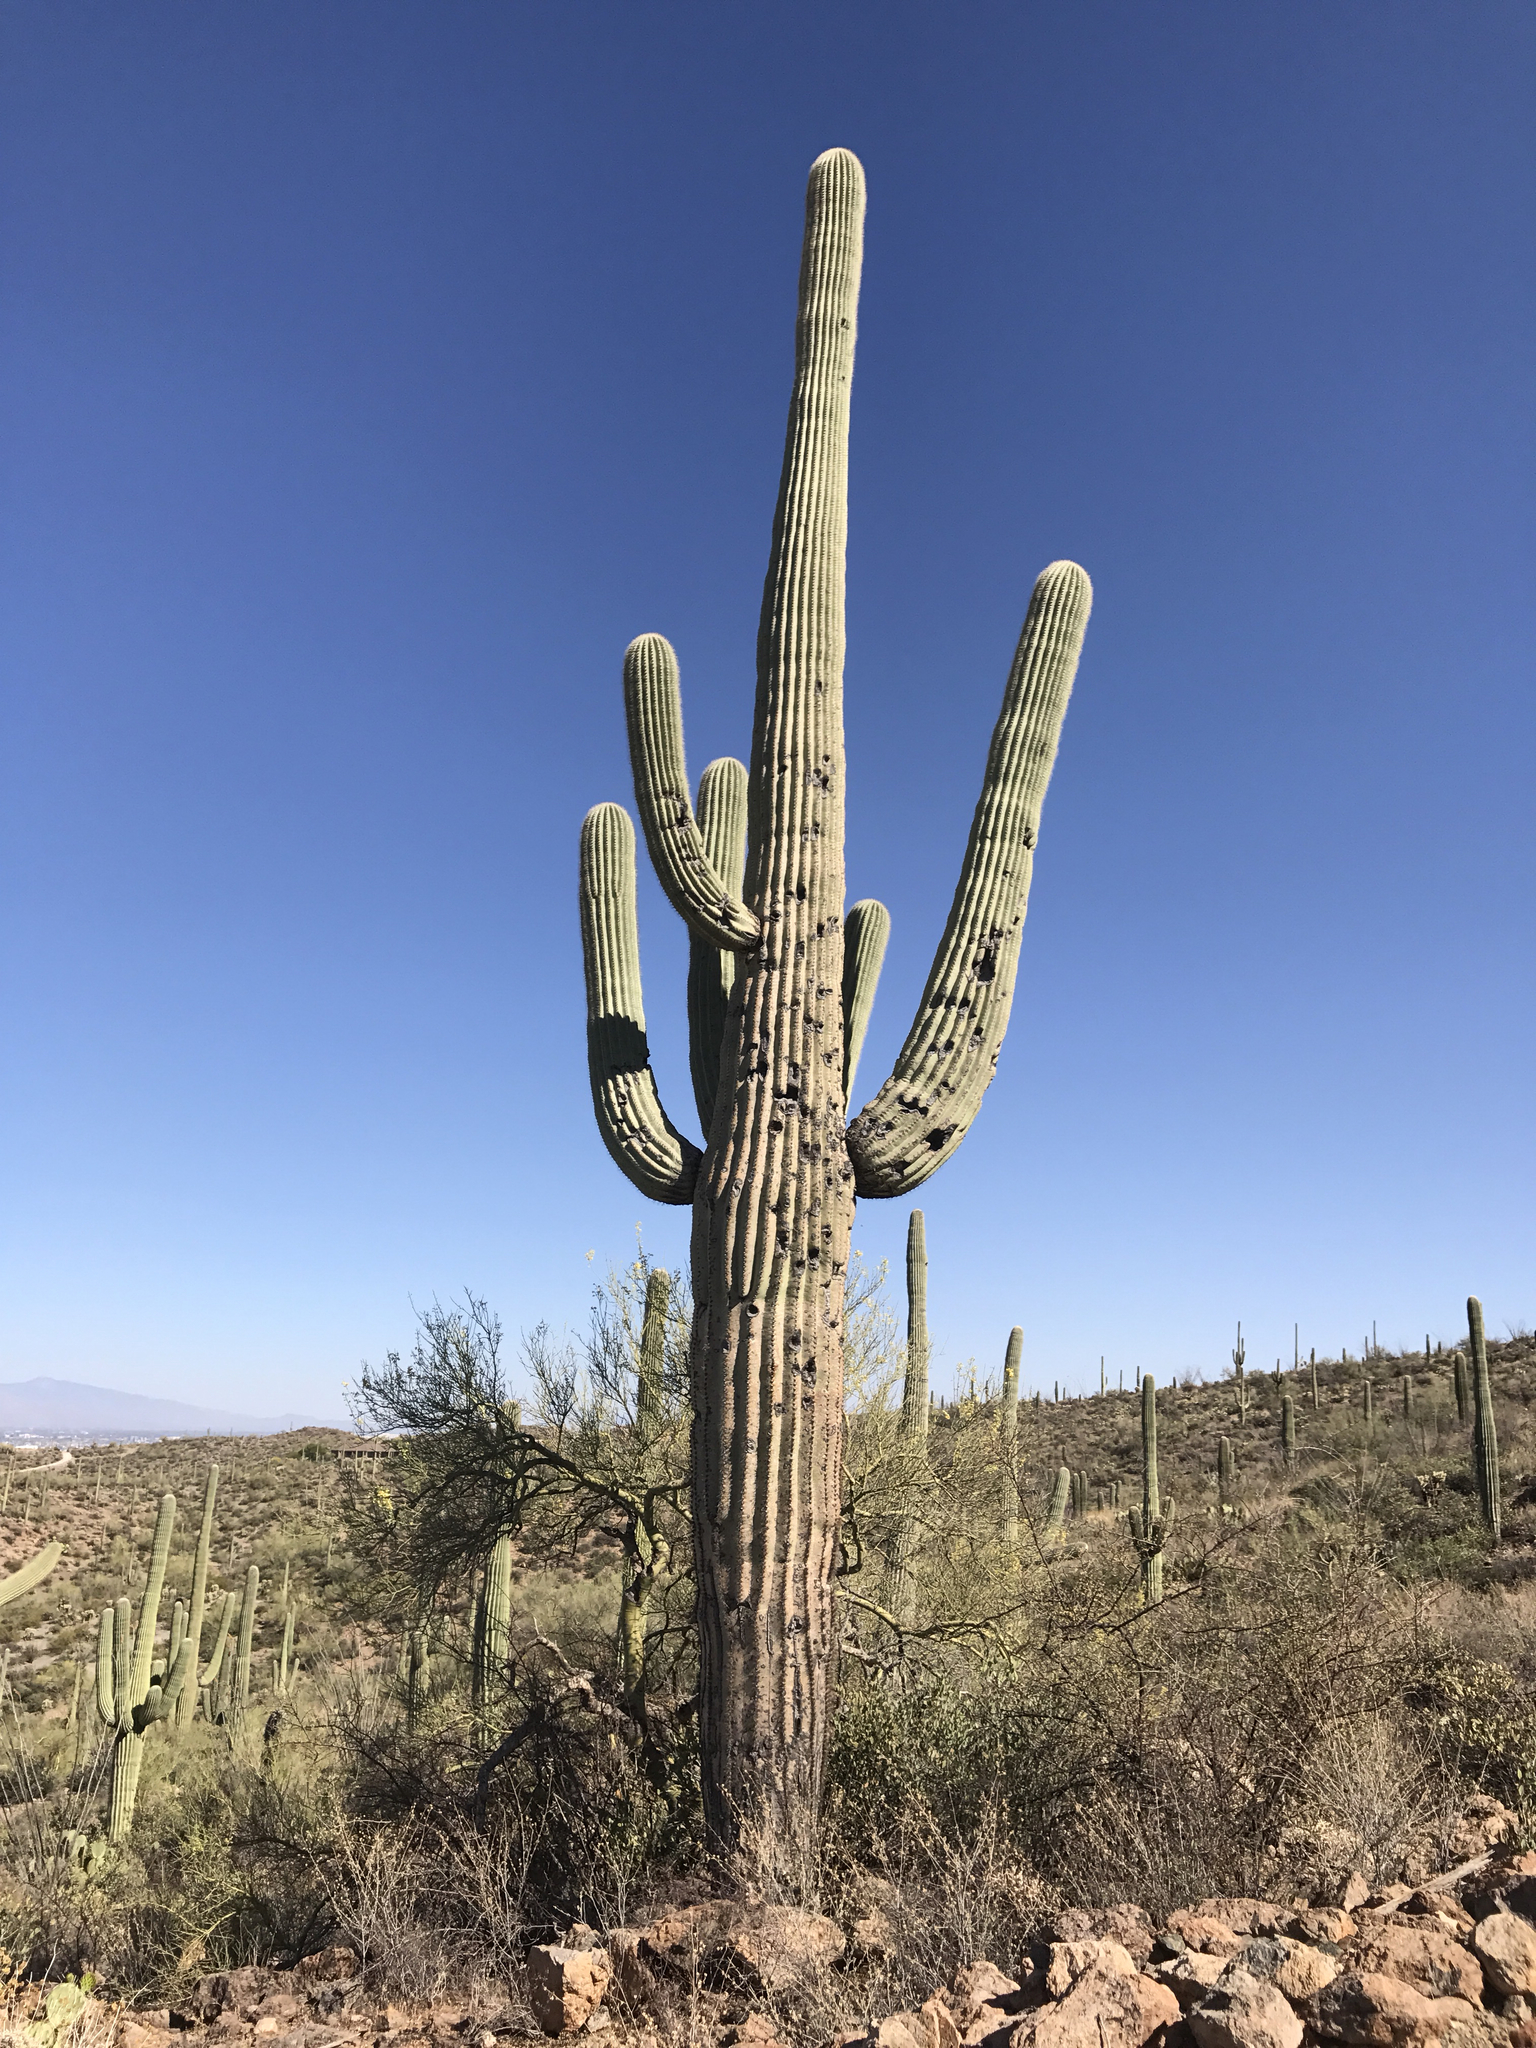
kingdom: Plantae
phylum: Tracheophyta
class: Magnoliopsida
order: Caryophyllales
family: Cactaceae
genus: Carnegiea
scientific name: Carnegiea gigantea
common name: Saguaro
